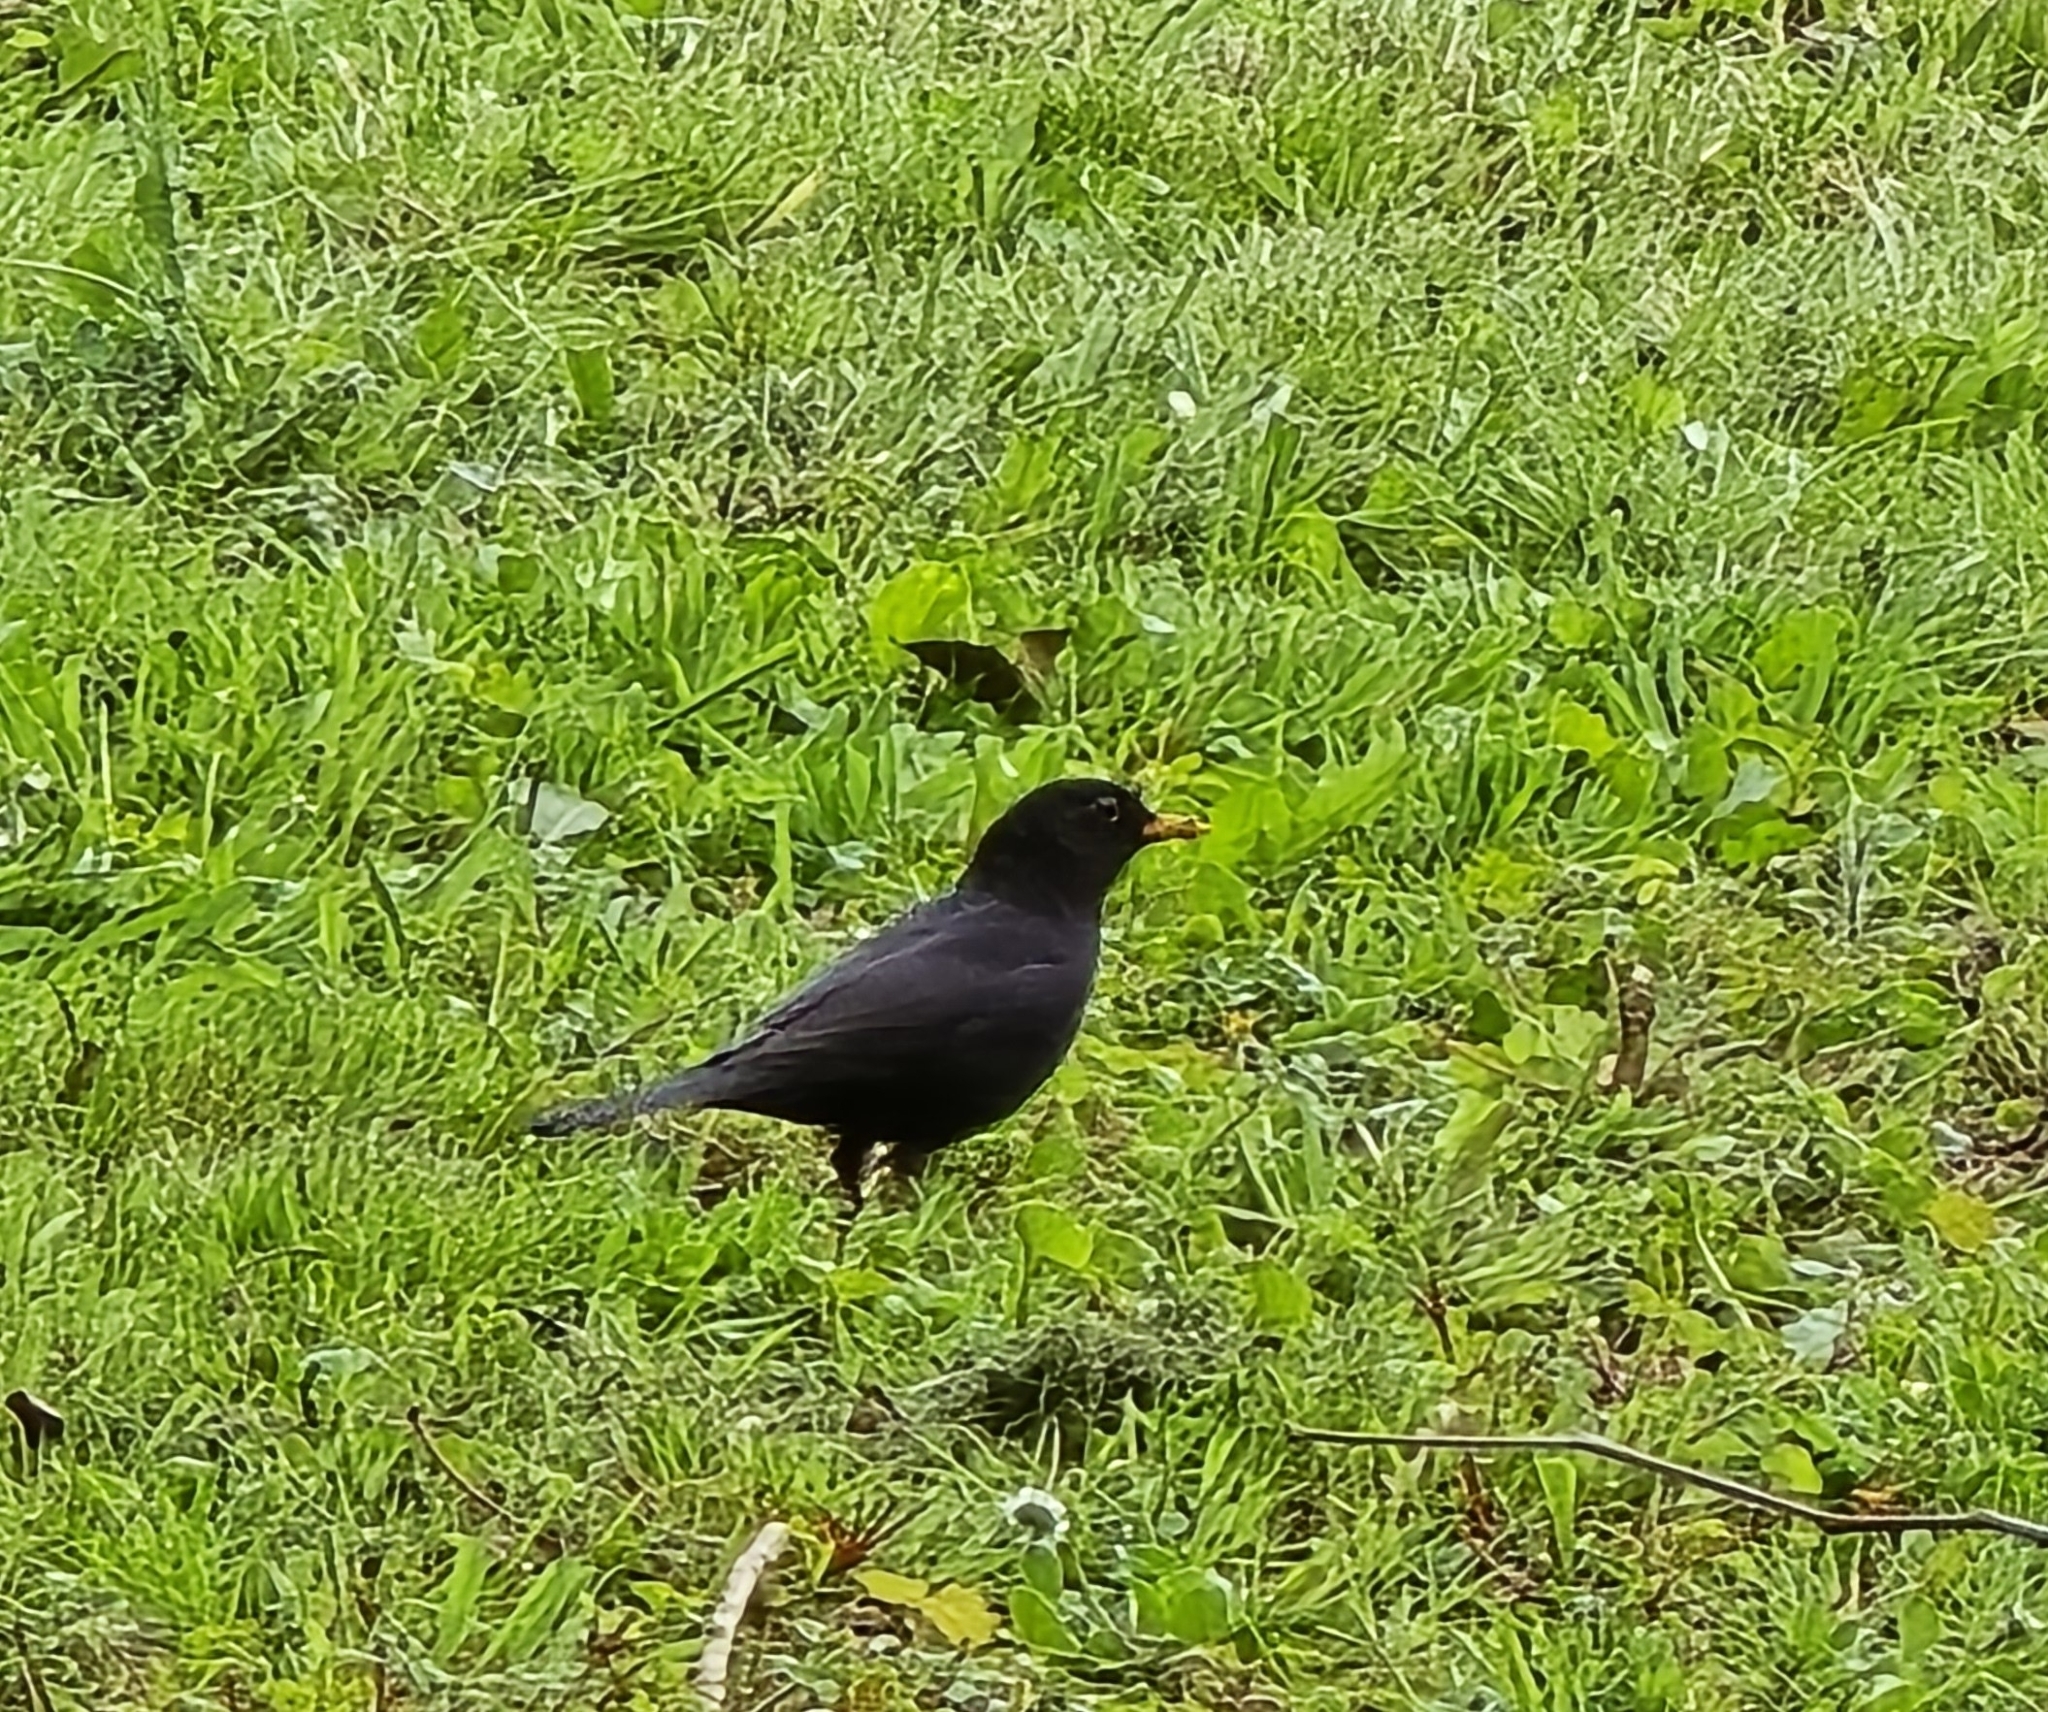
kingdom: Animalia
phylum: Chordata
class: Aves
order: Passeriformes
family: Turdidae
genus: Turdus
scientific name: Turdus merula
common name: Common blackbird
